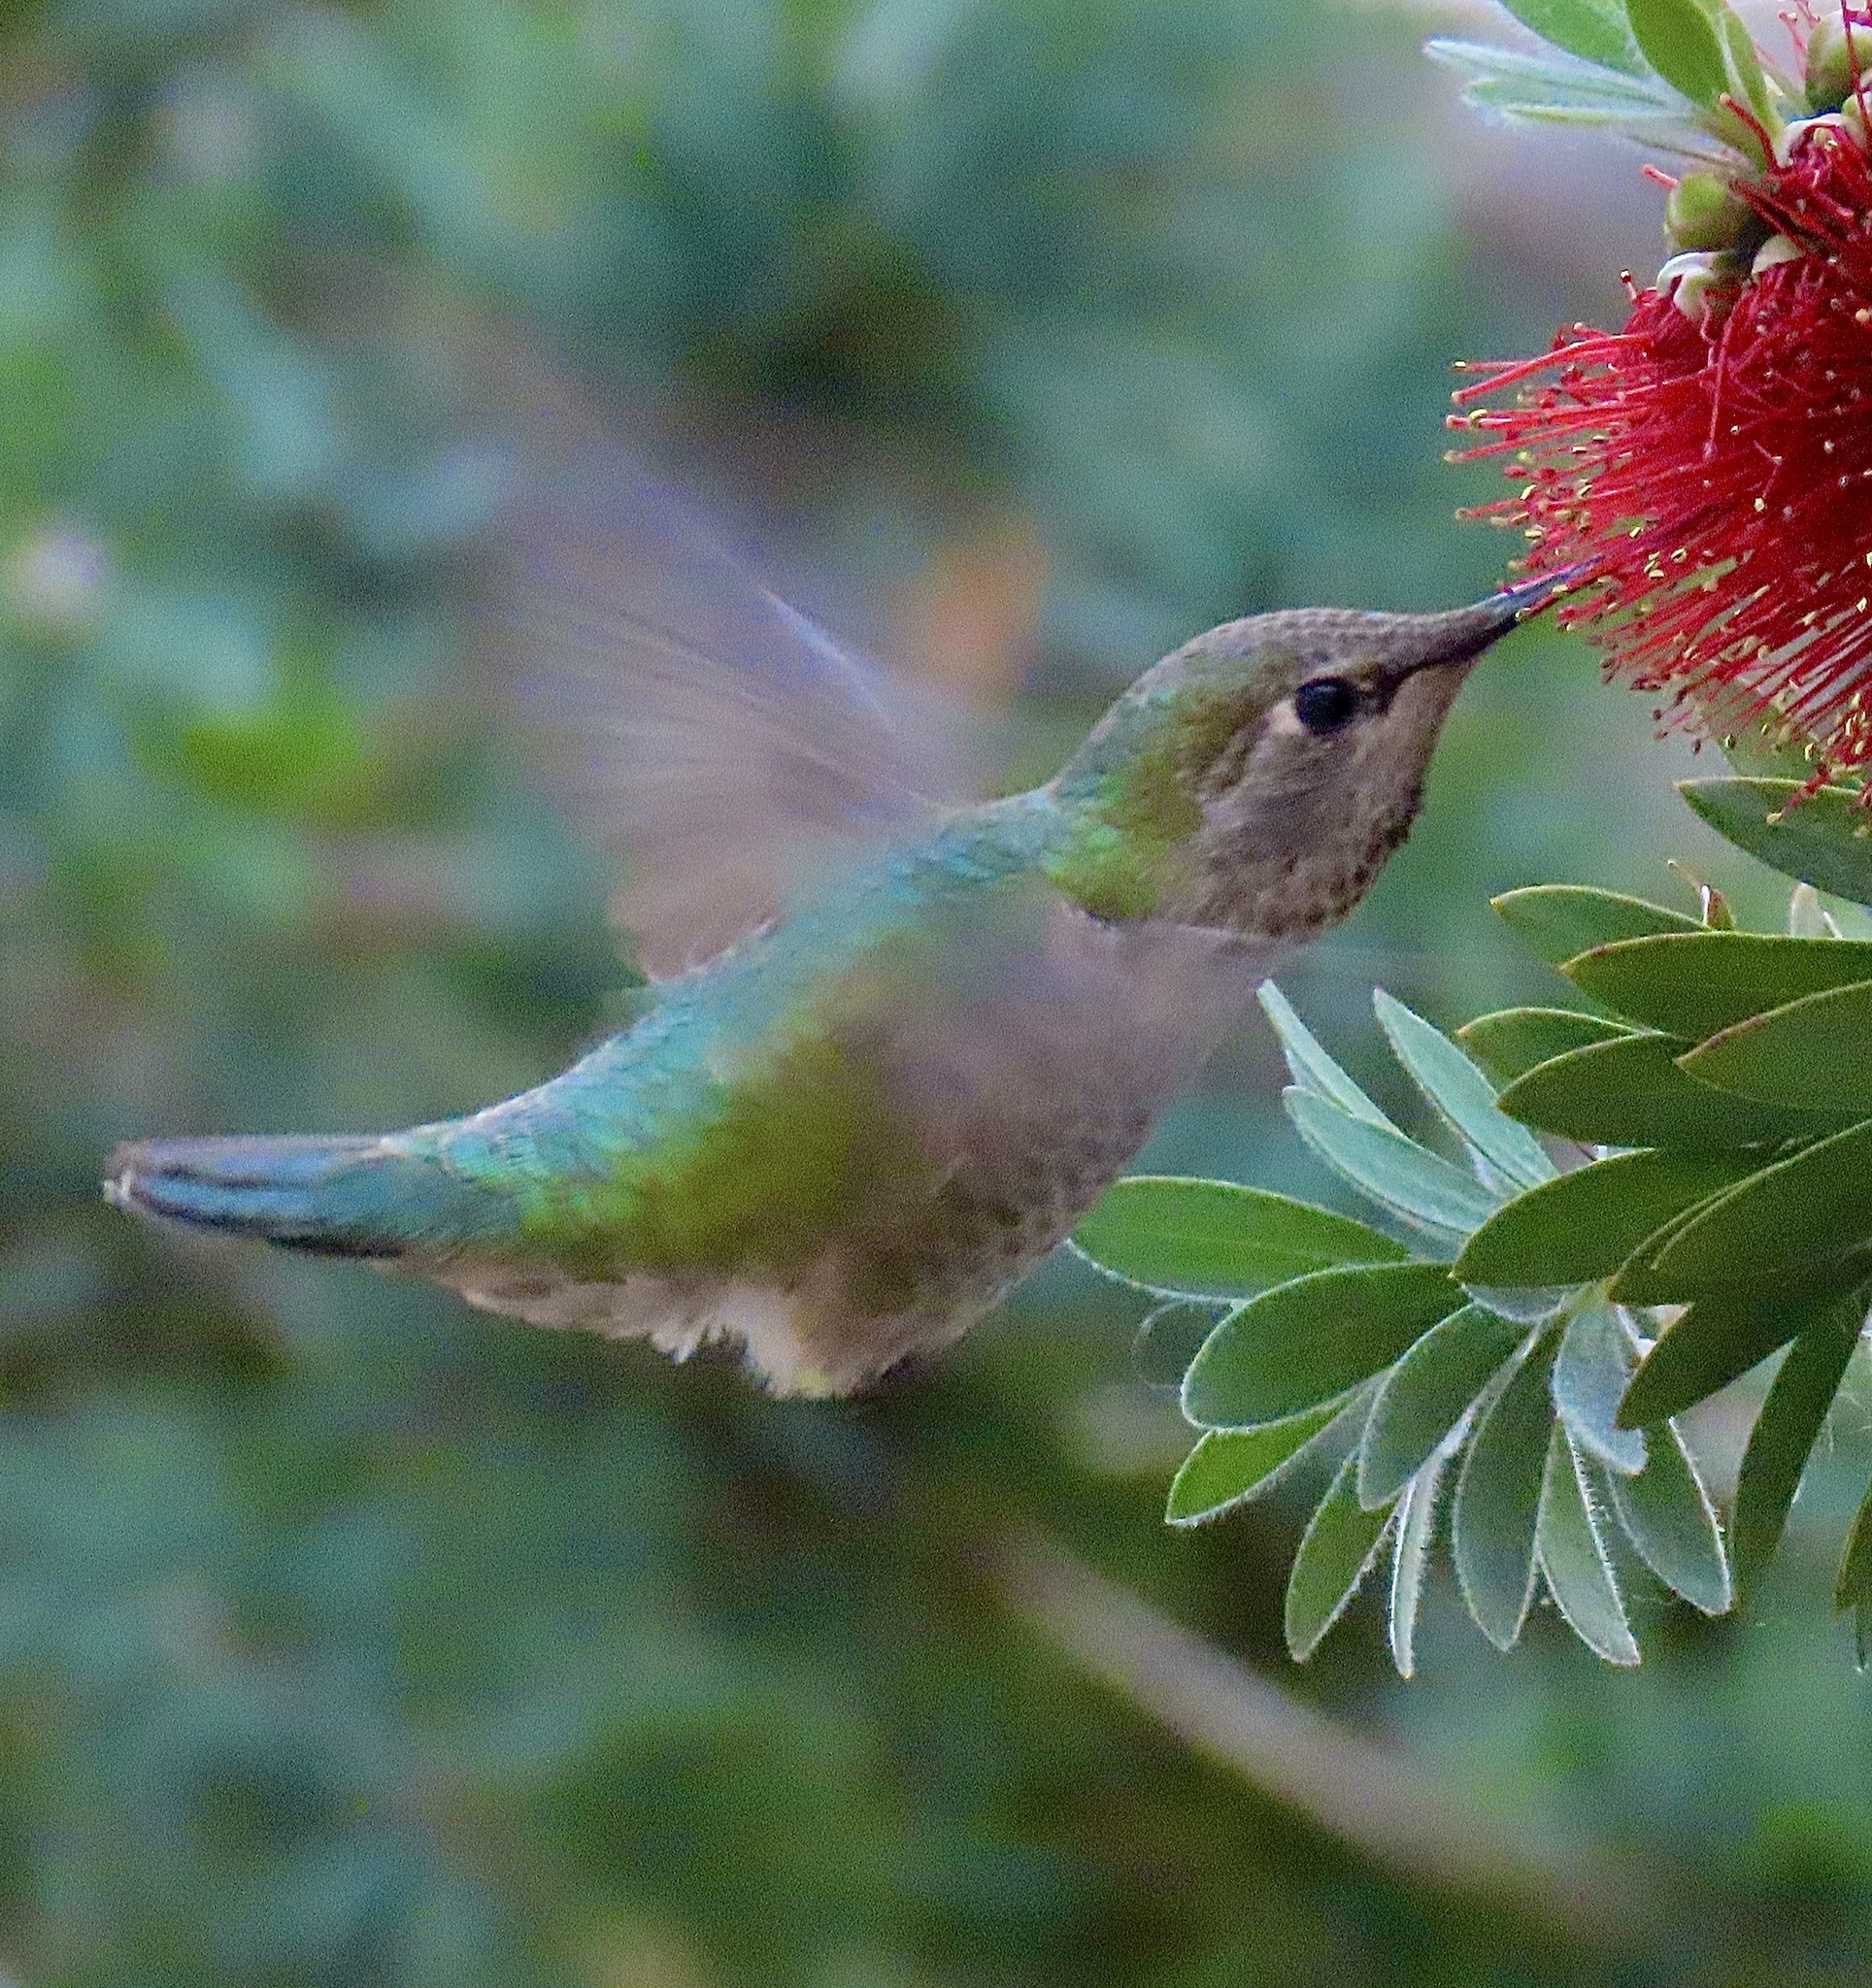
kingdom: Animalia
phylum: Chordata
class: Aves
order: Apodiformes
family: Trochilidae
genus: Calypte
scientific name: Calypte anna
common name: Anna's hummingbird
